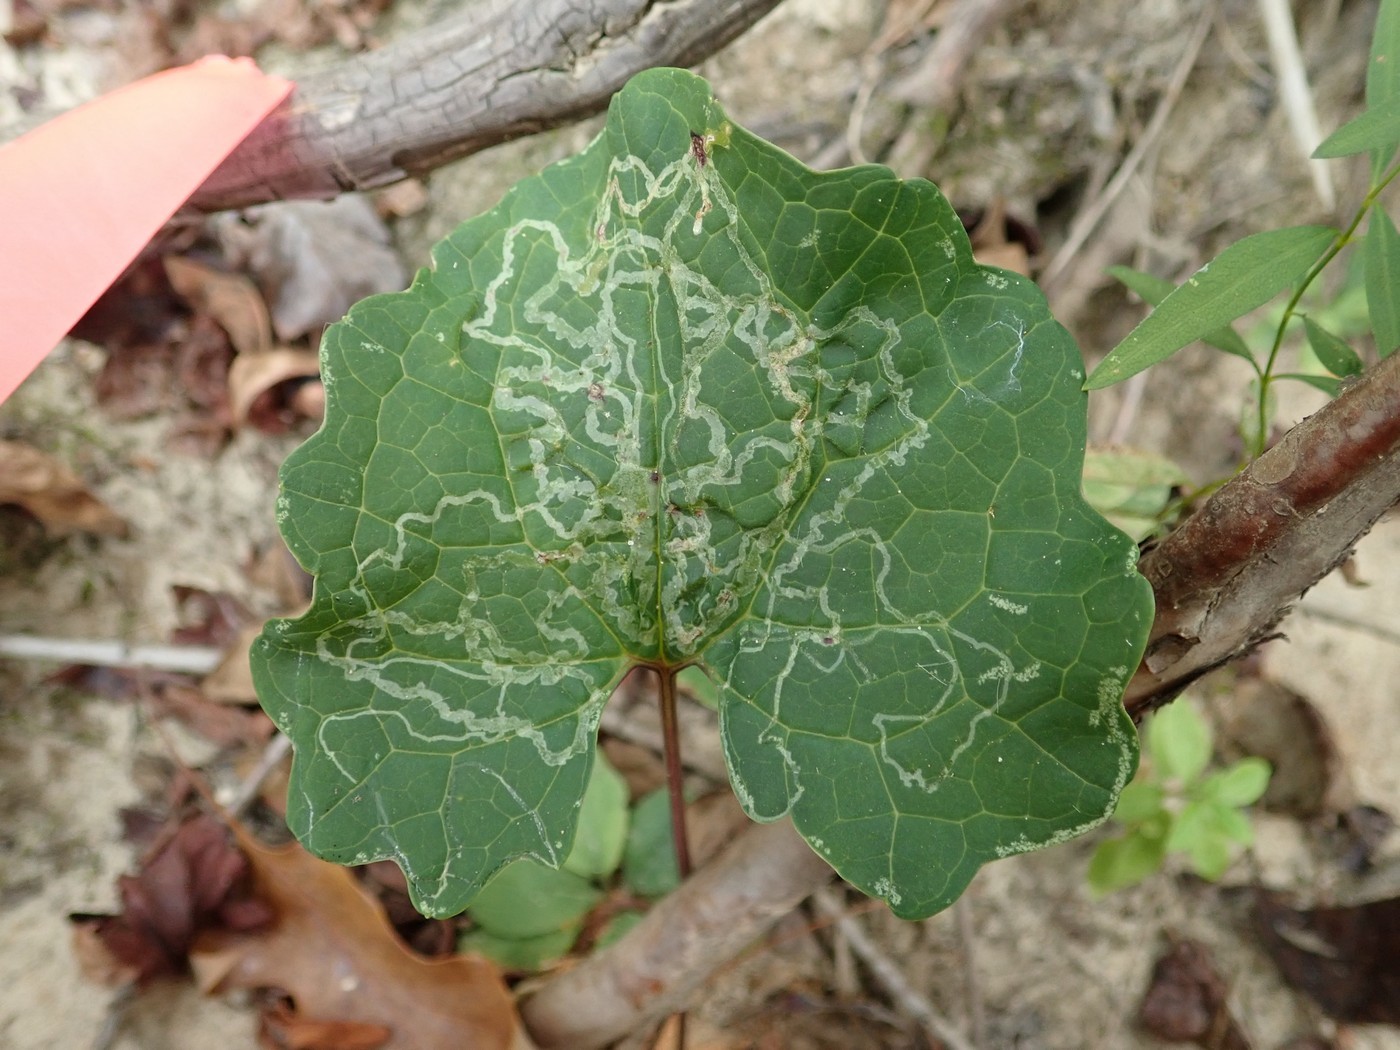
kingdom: Animalia
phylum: Arthropoda
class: Insecta
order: Lepidoptera
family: Gracillariidae
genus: Phyllocnistis
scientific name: Phyllocnistis insignis
